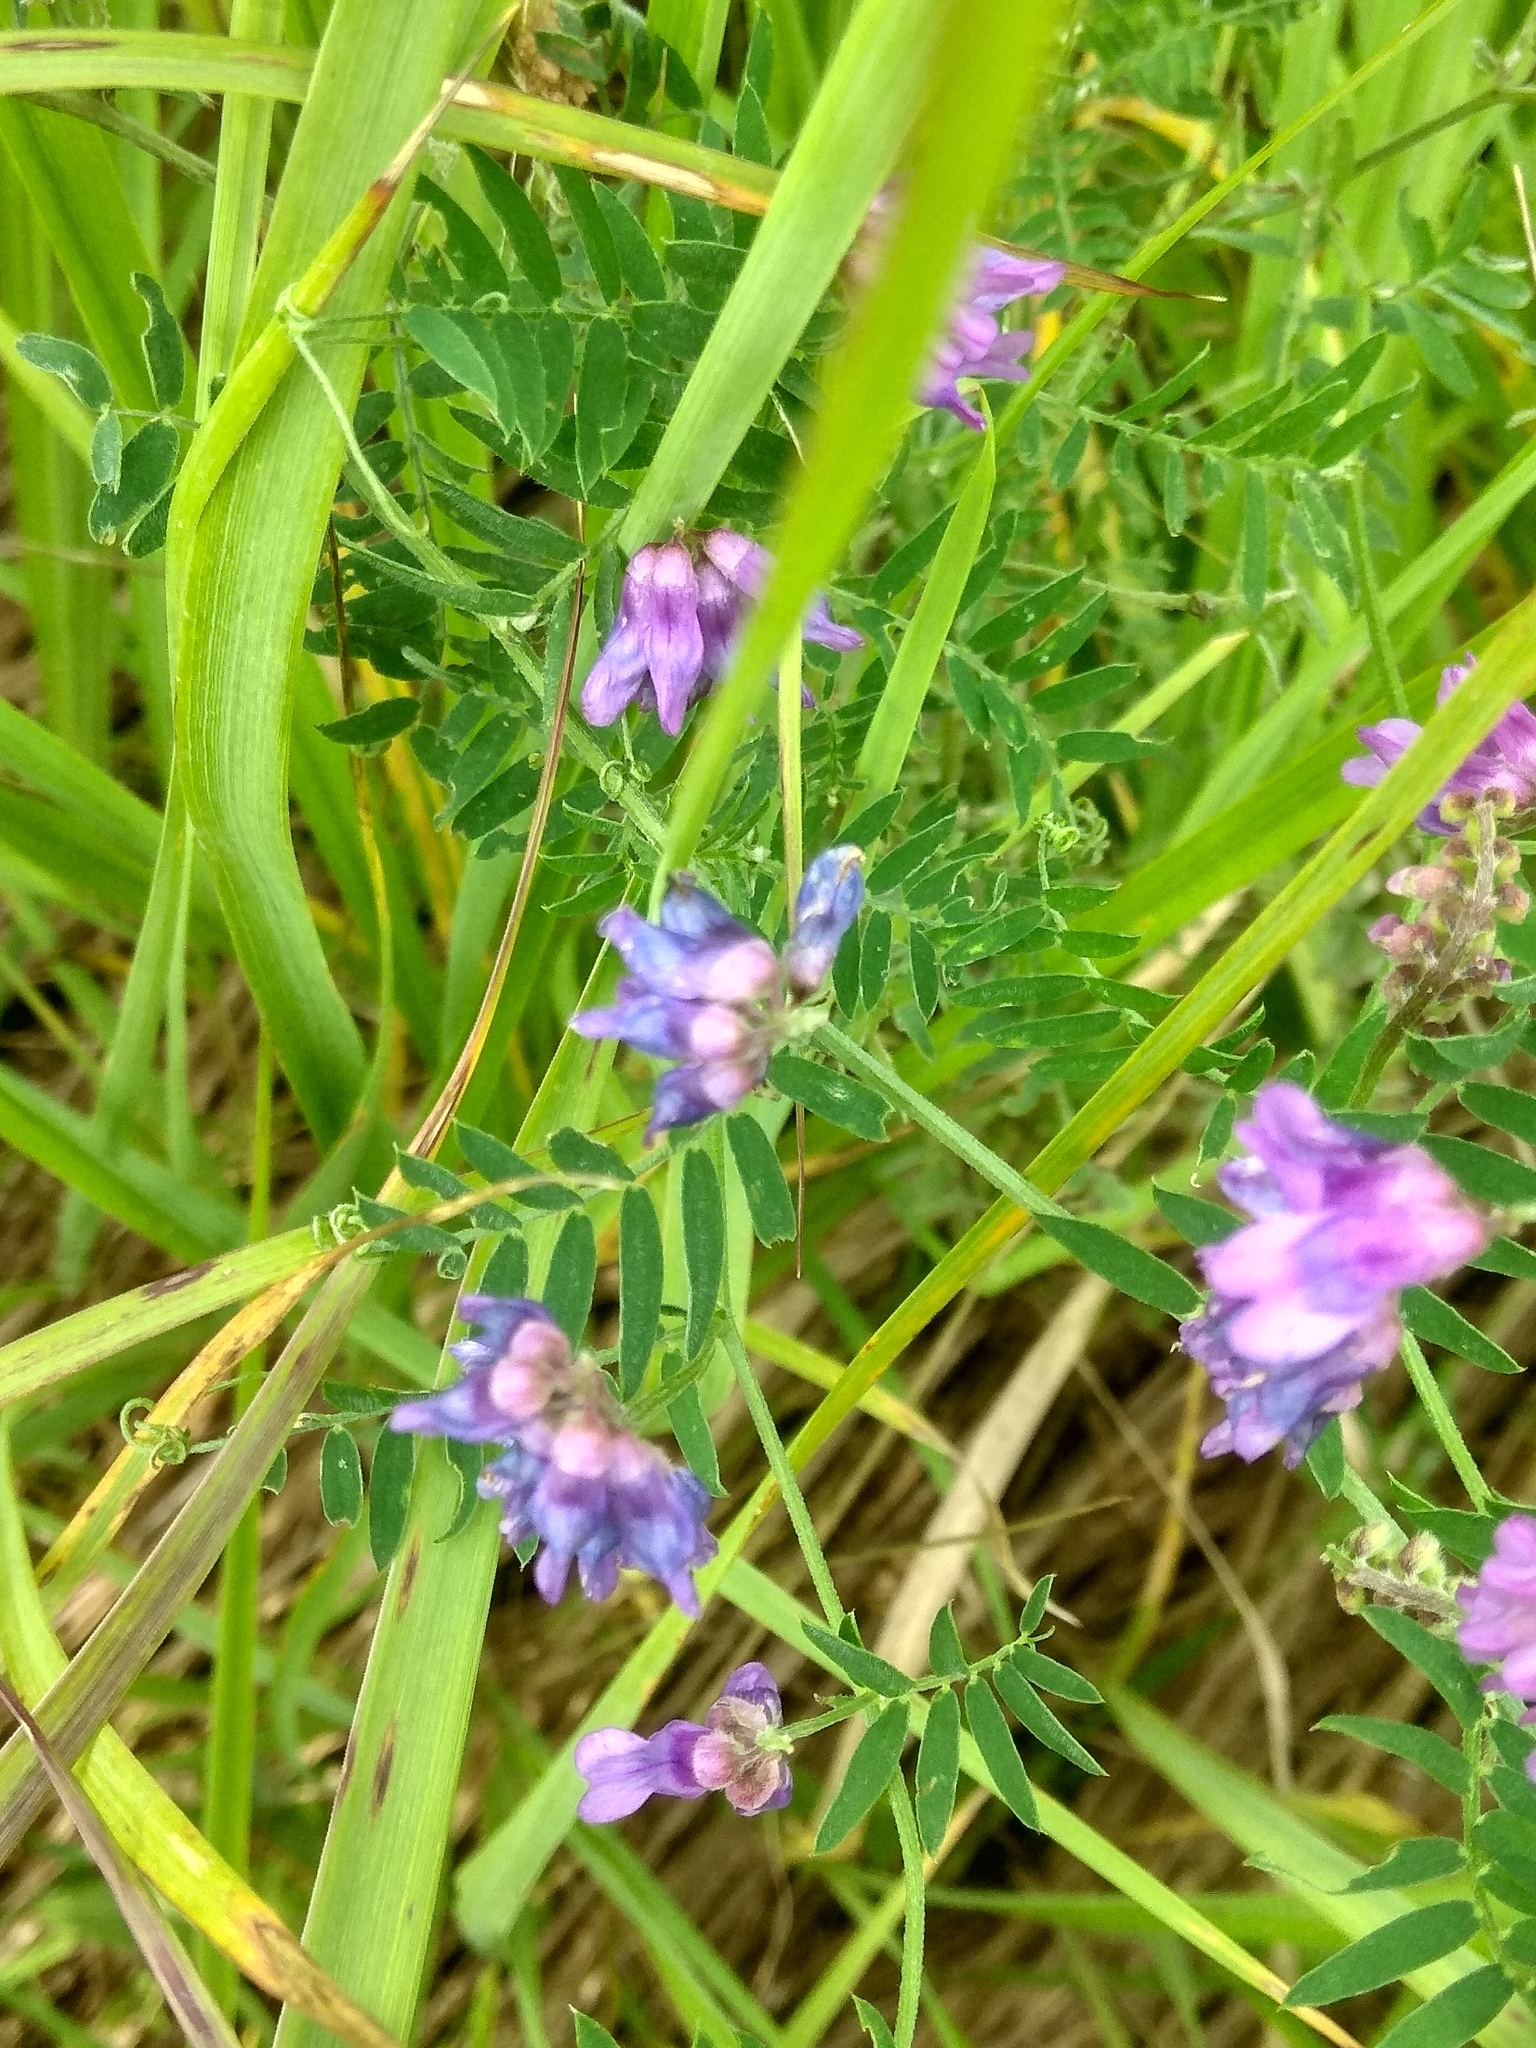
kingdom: Plantae
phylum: Tracheophyta
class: Magnoliopsida
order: Fabales
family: Fabaceae
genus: Vicia
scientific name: Vicia cracca
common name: Bird vetch
